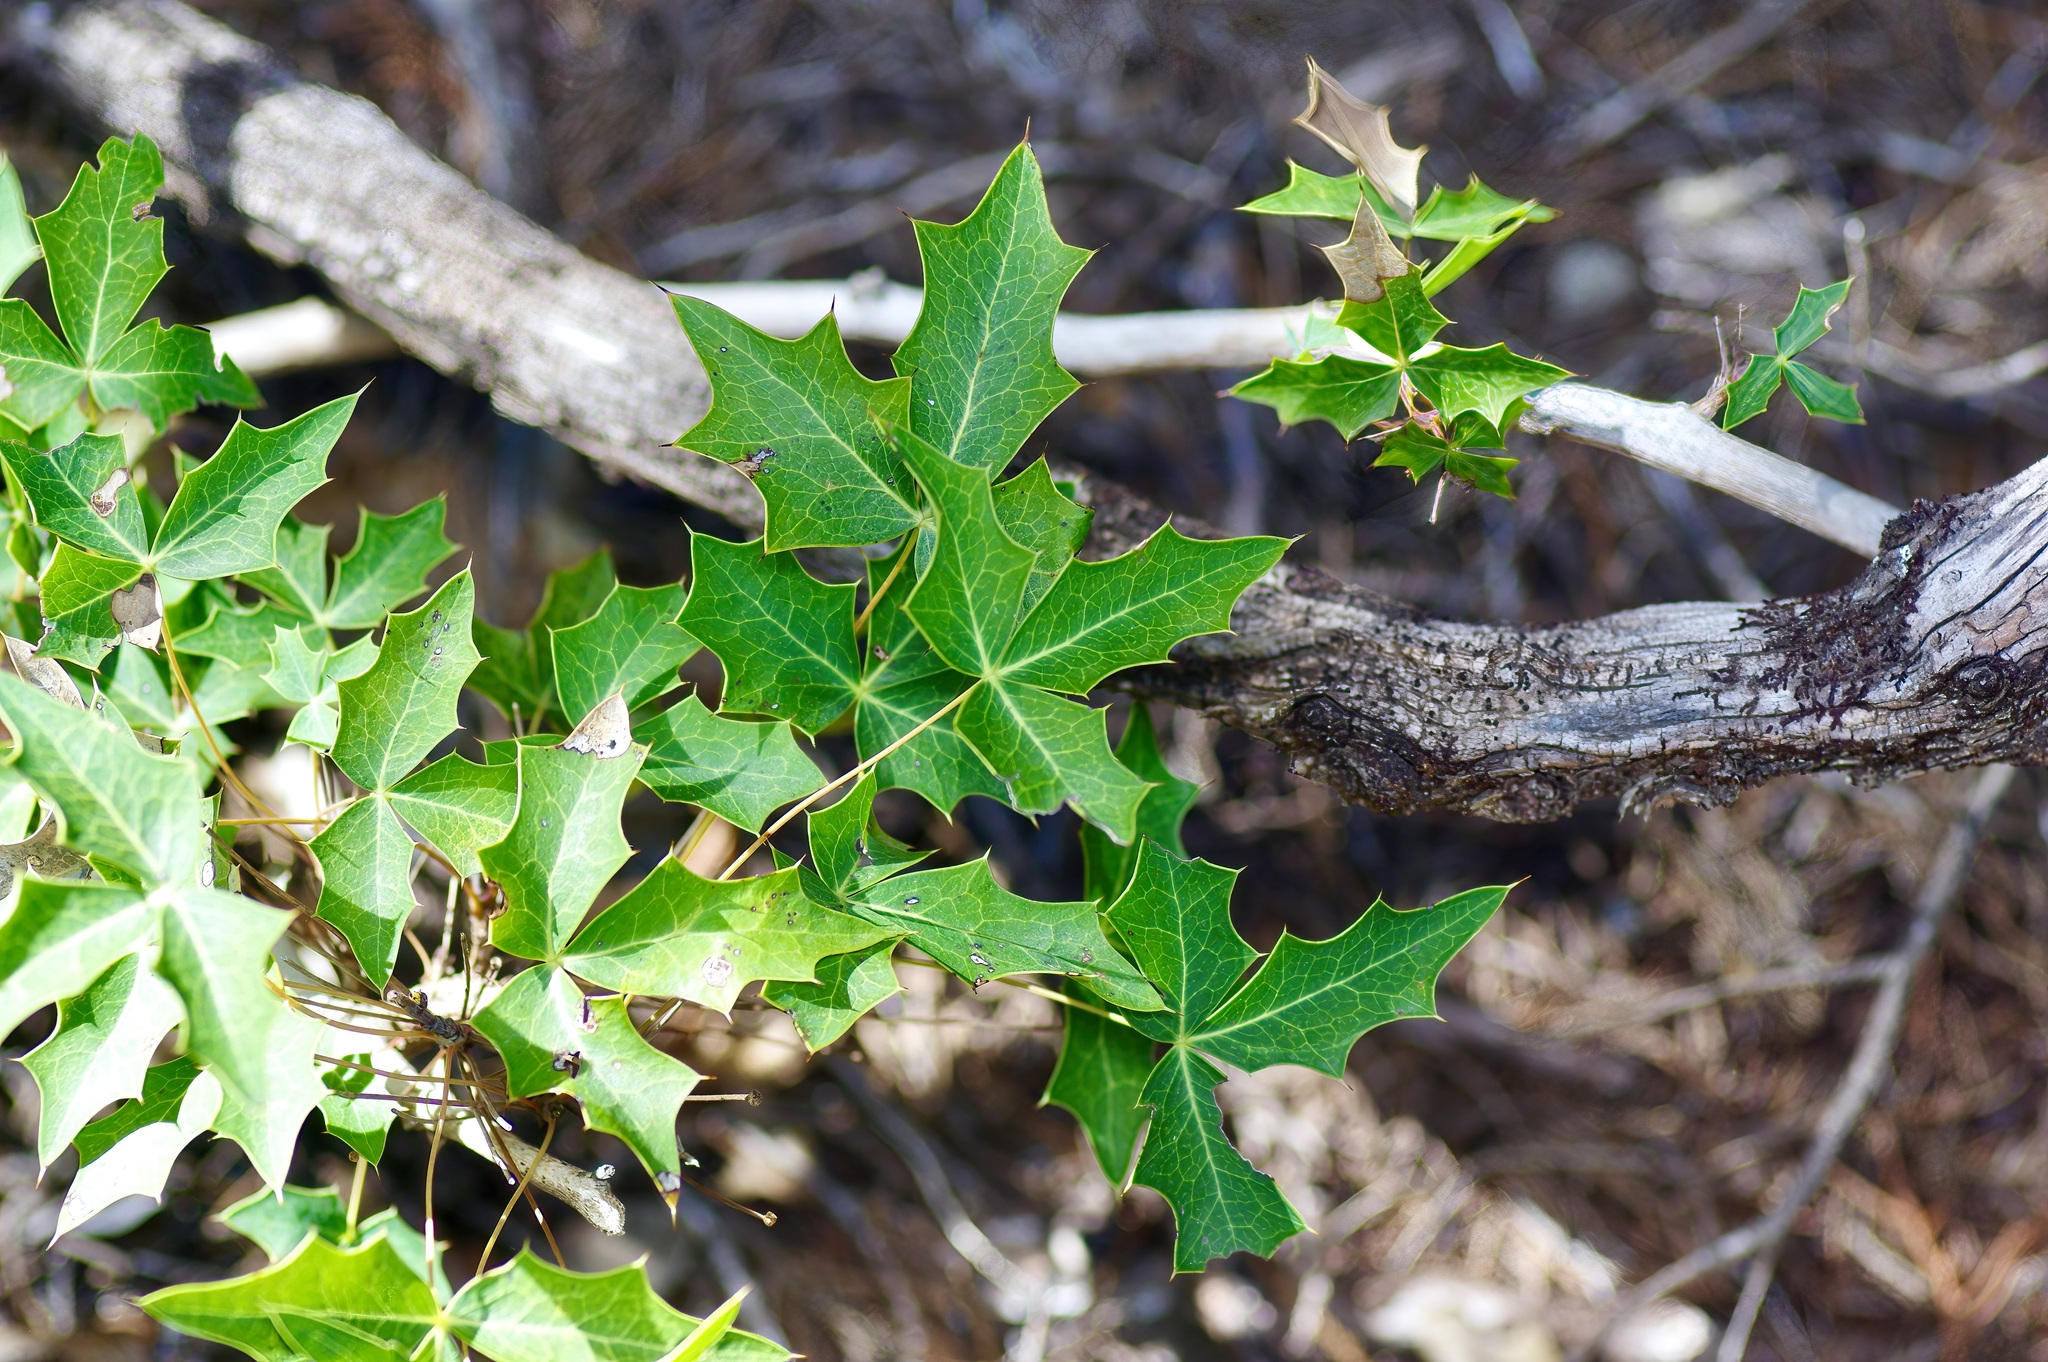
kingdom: Plantae
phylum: Tracheophyta
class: Magnoliopsida
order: Ranunculales
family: Berberidaceae
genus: Alloberberis
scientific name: Alloberberis trifoliolata
